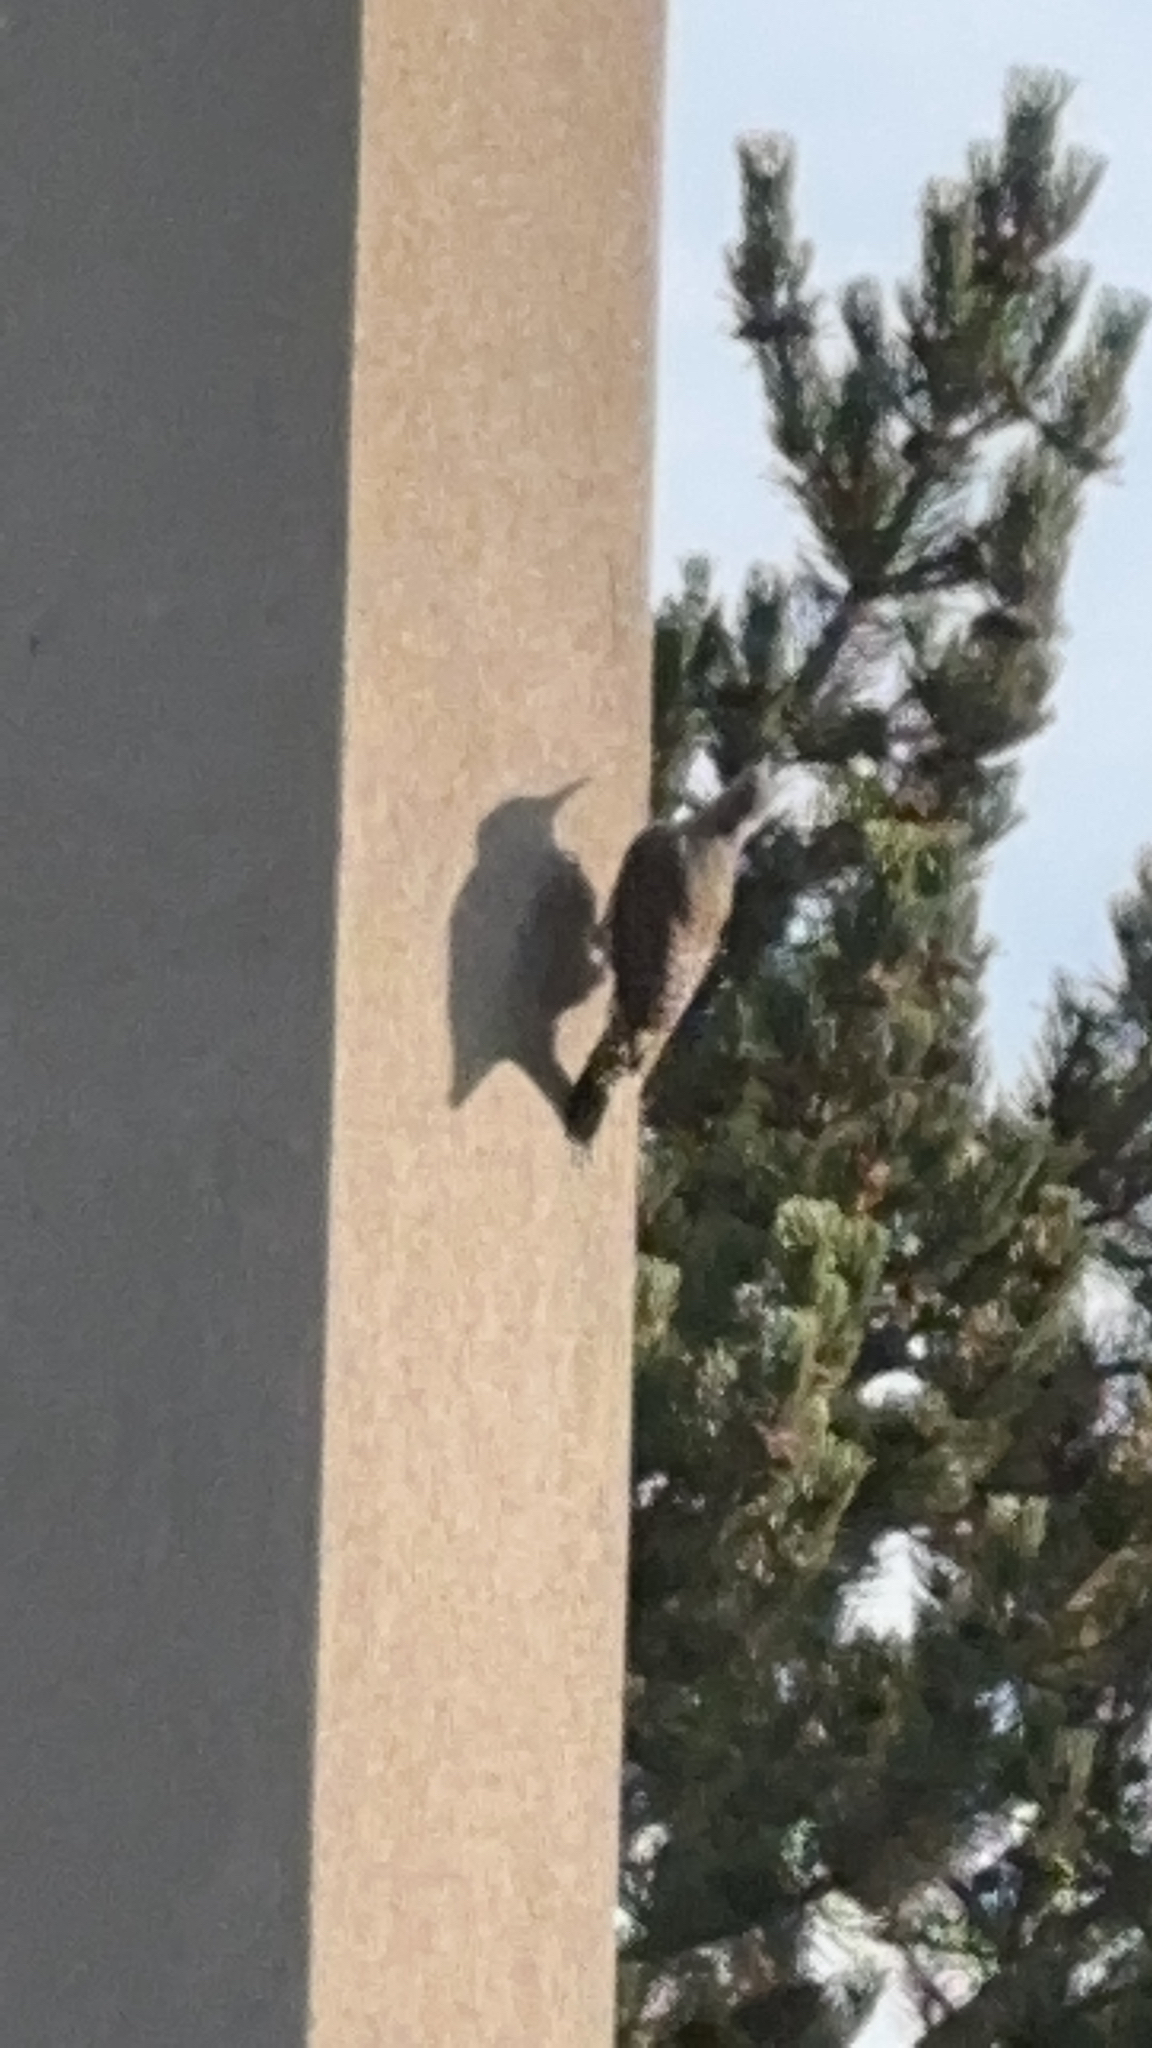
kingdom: Animalia
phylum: Chordata
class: Aves
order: Piciformes
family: Picidae
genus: Colaptes
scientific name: Colaptes auratus
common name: Northern flicker
